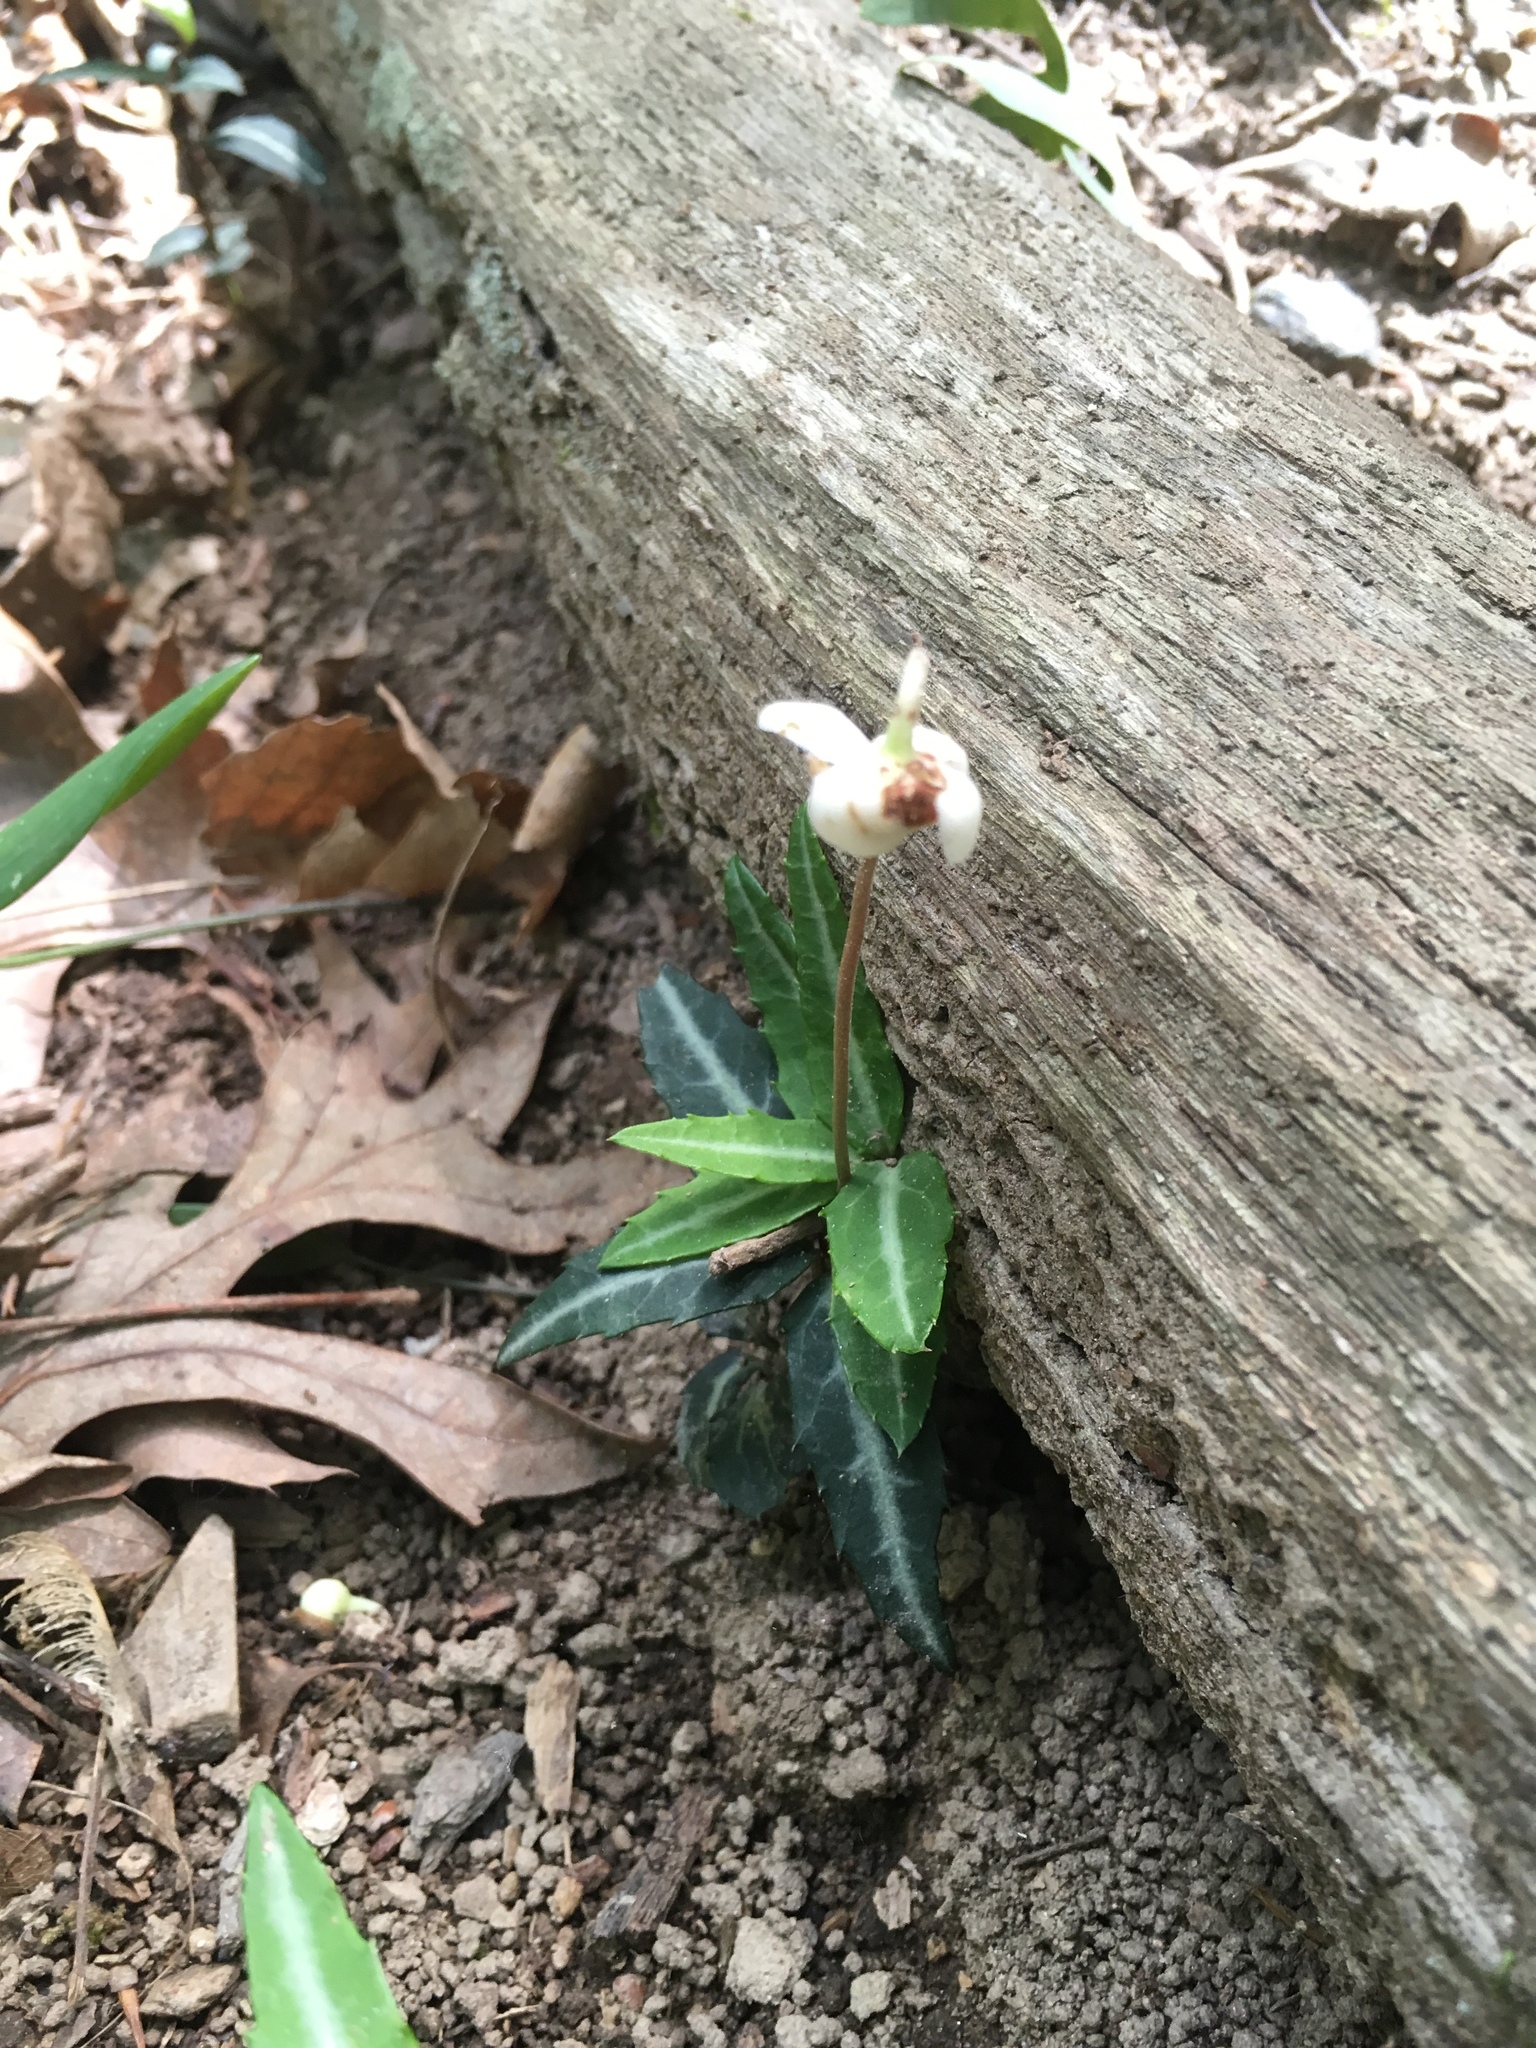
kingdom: Plantae
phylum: Tracheophyta
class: Magnoliopsida
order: Ericales
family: Ericaceae
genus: Chimaphila
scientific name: Chimaphila maculata
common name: Spotted pipsissewa
